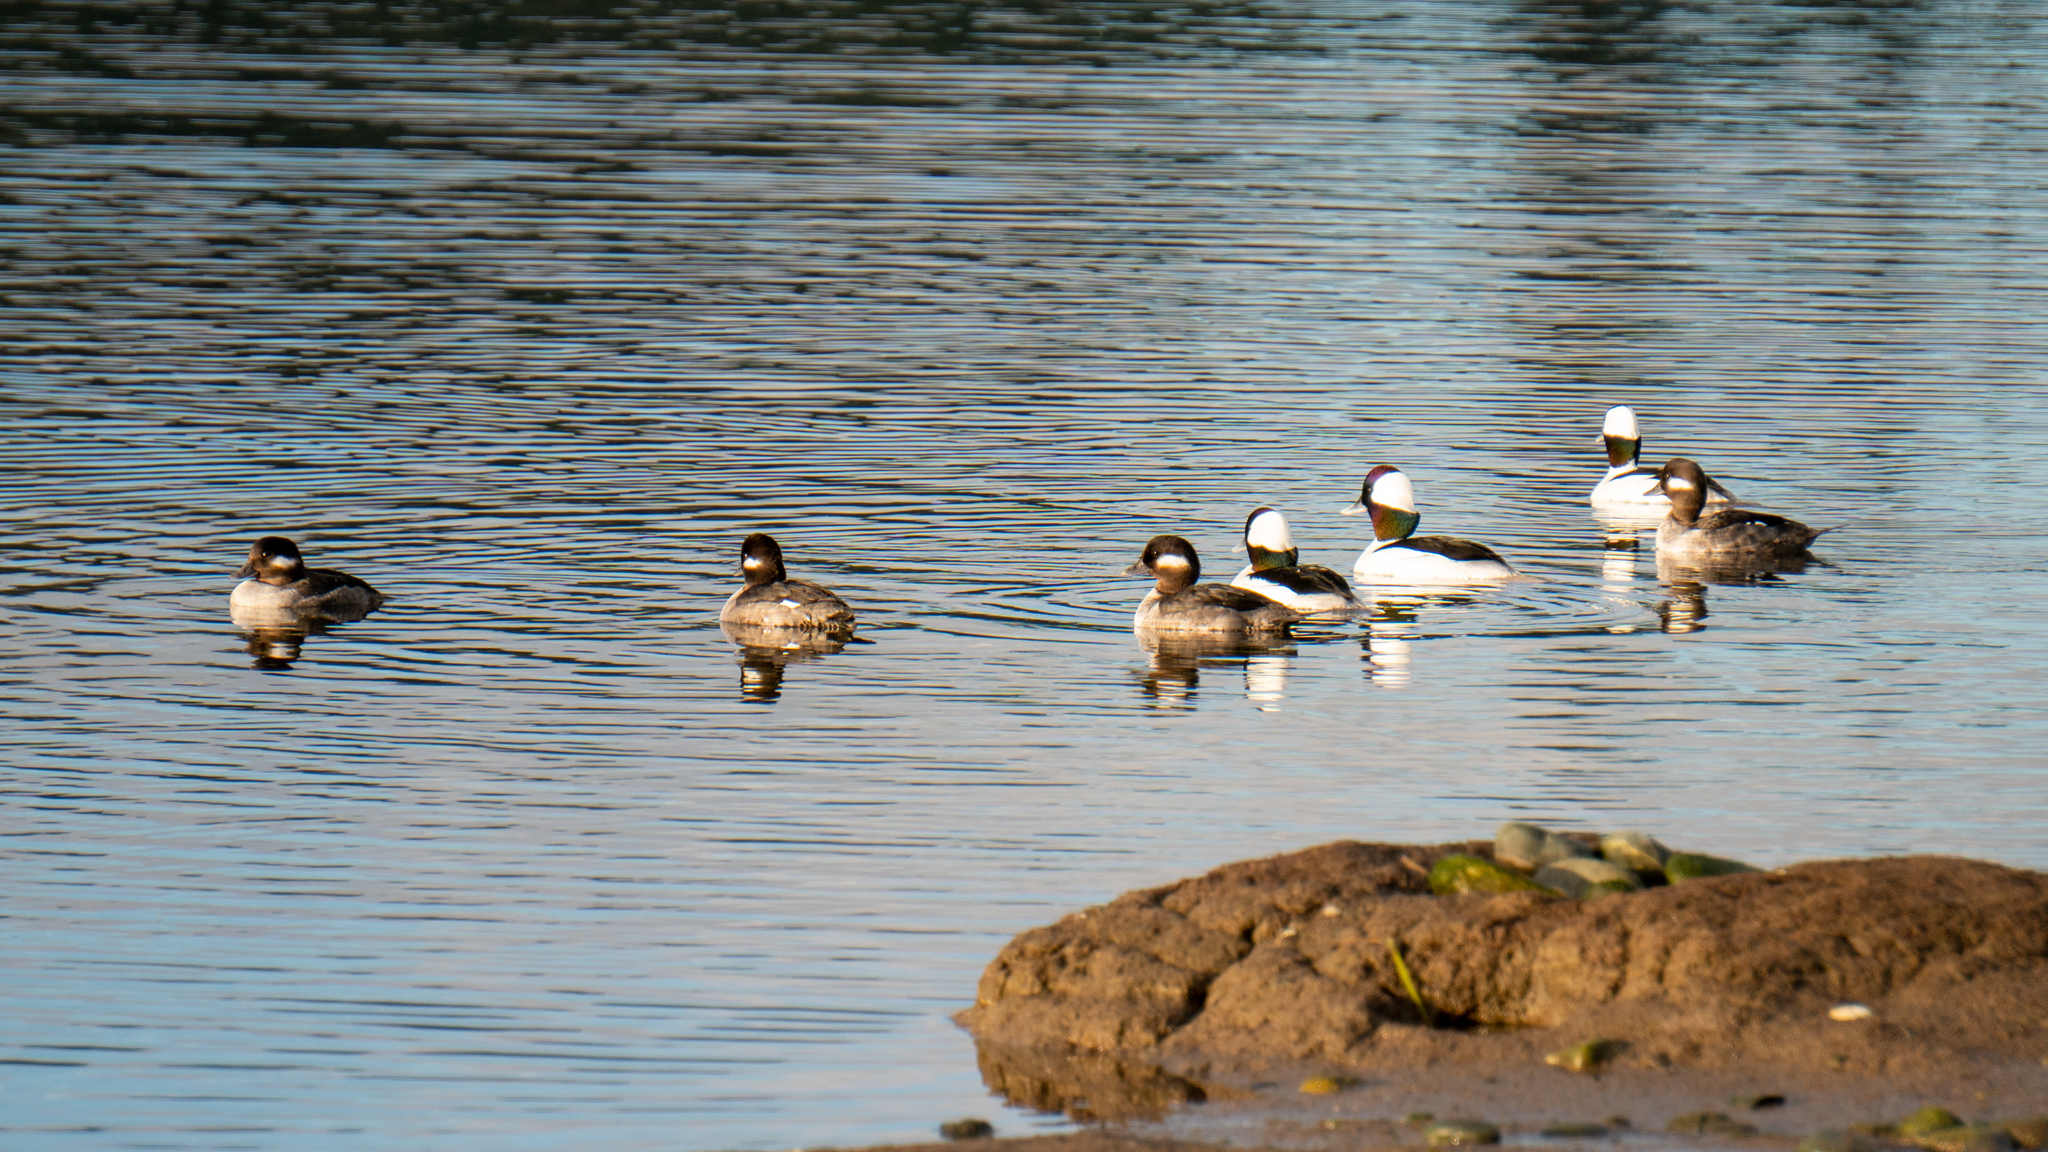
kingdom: Animalia
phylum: Chordata
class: Aves
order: Anseriformes
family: Anatidae
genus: Bucephala
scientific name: Bucephala albeola
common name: Bufflehead
